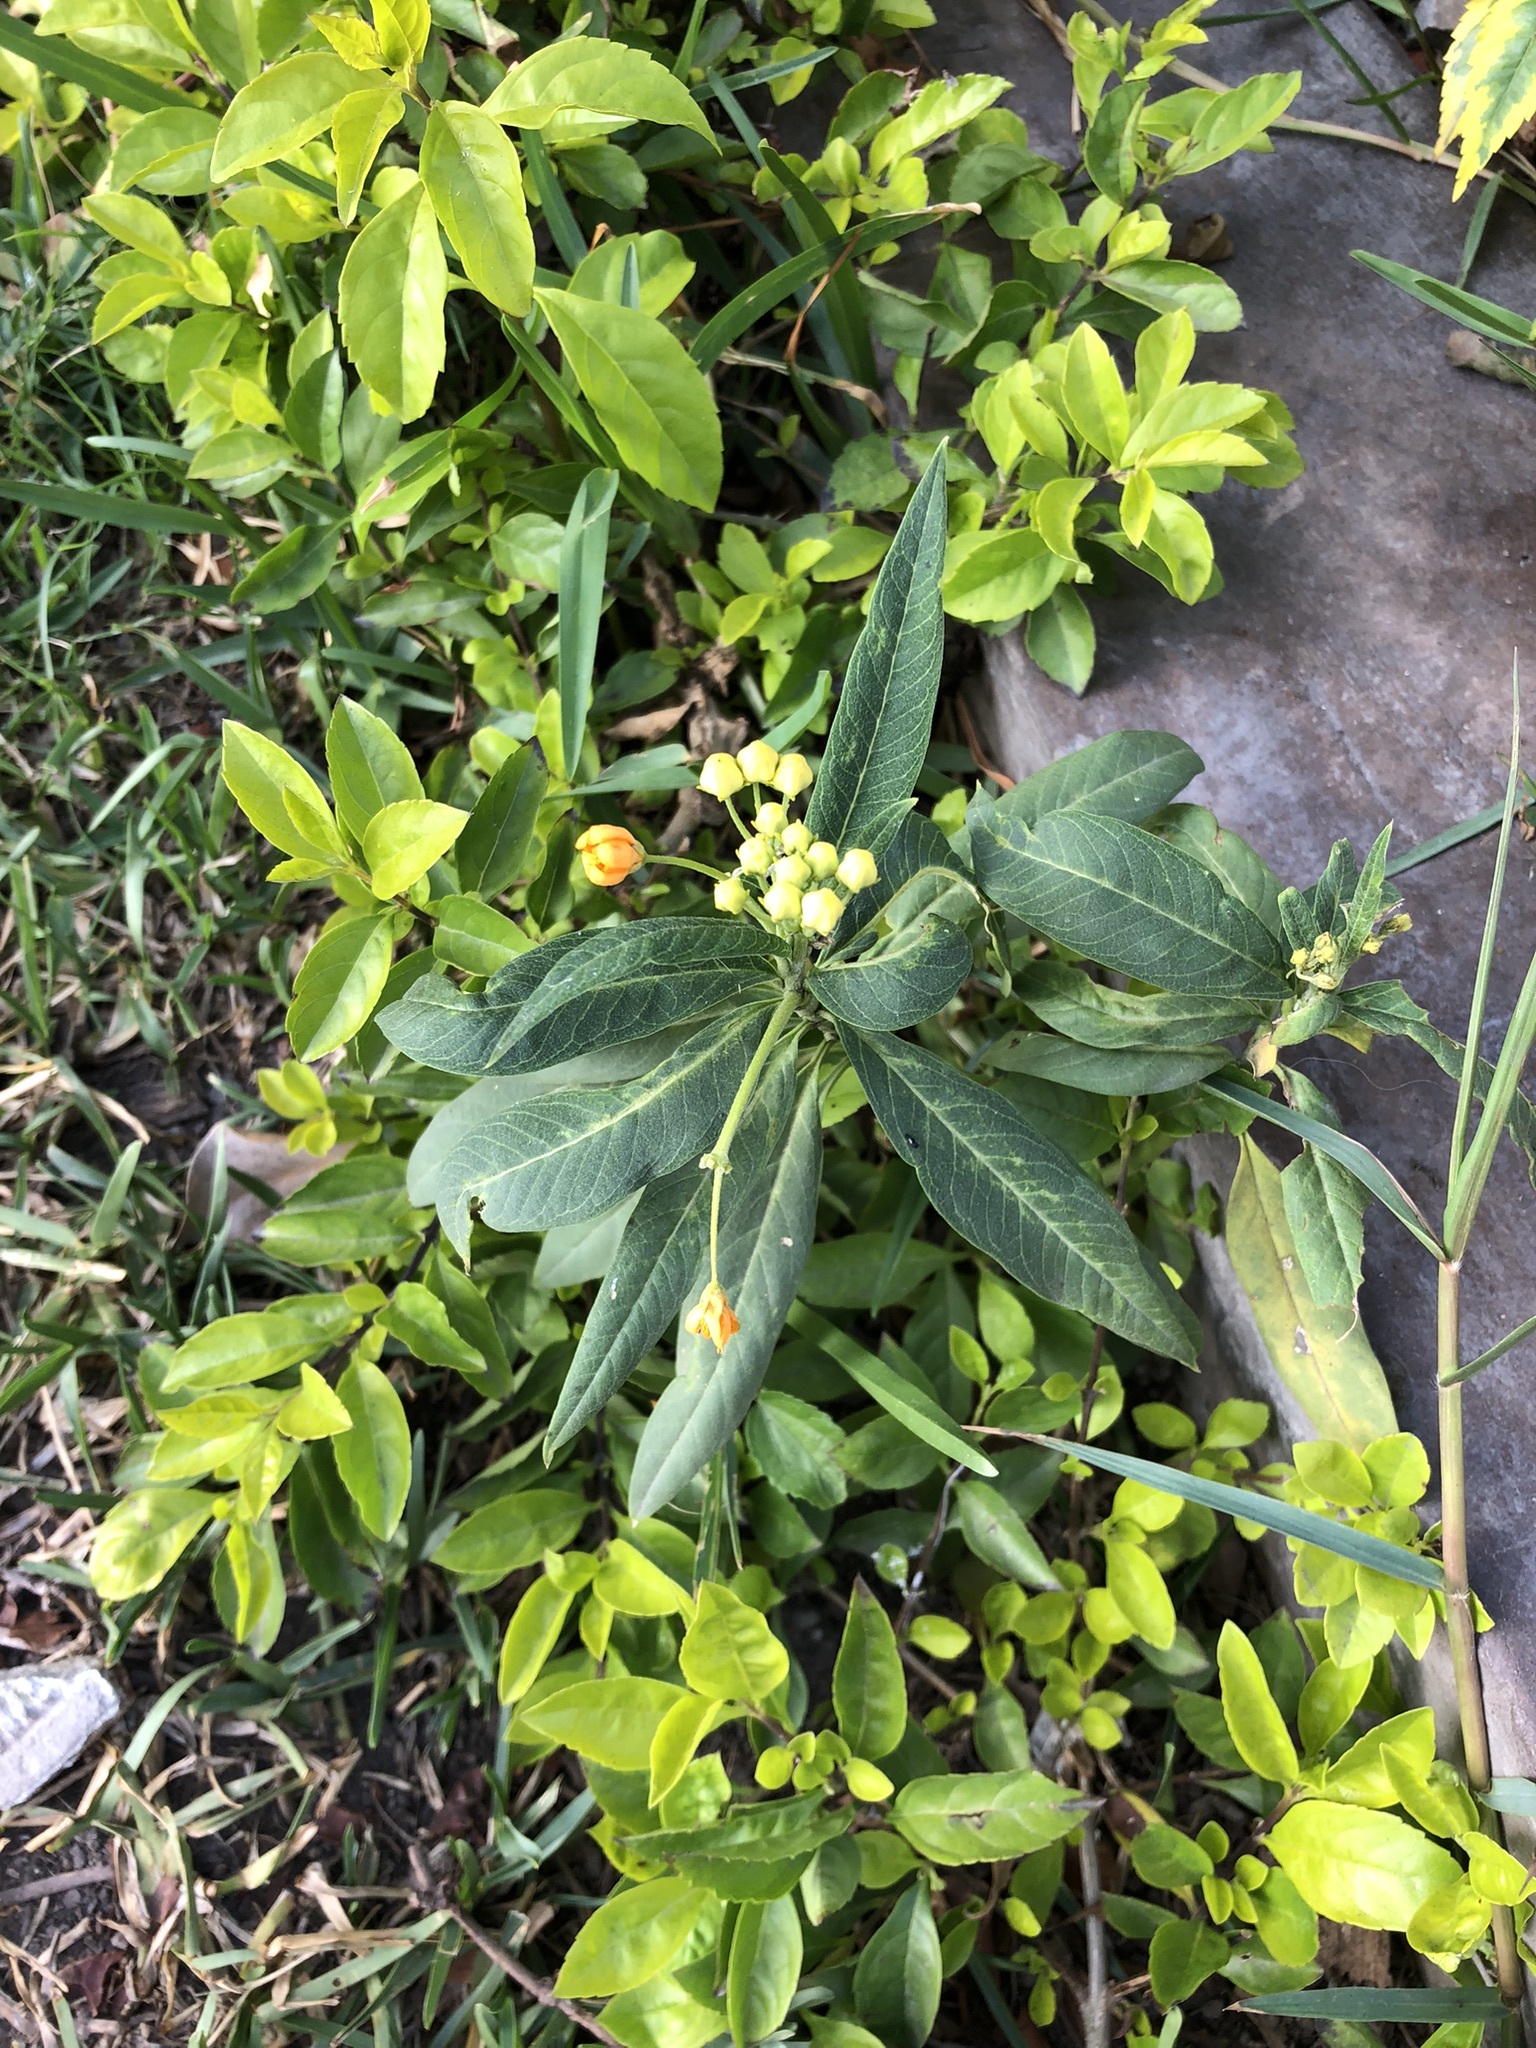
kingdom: Plantae
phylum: Tracheophyta
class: Magnoliopsida
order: Gentianales
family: Apocynaceae
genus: Asclepias
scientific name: Asclepias curassavica
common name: Bloodflower
